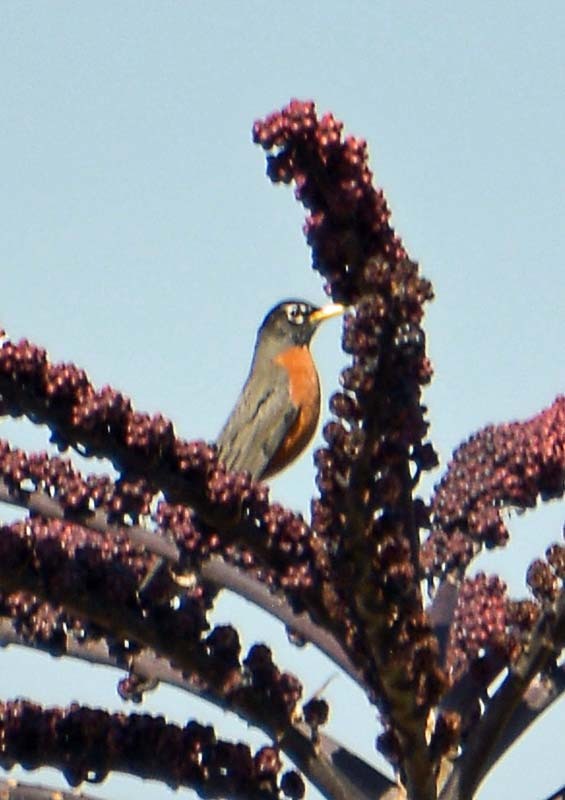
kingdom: Animalia
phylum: Chordata
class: Aves
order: Passeriformes
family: Turdidae
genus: Turdus
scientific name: Turdus migratorius
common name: American robin
